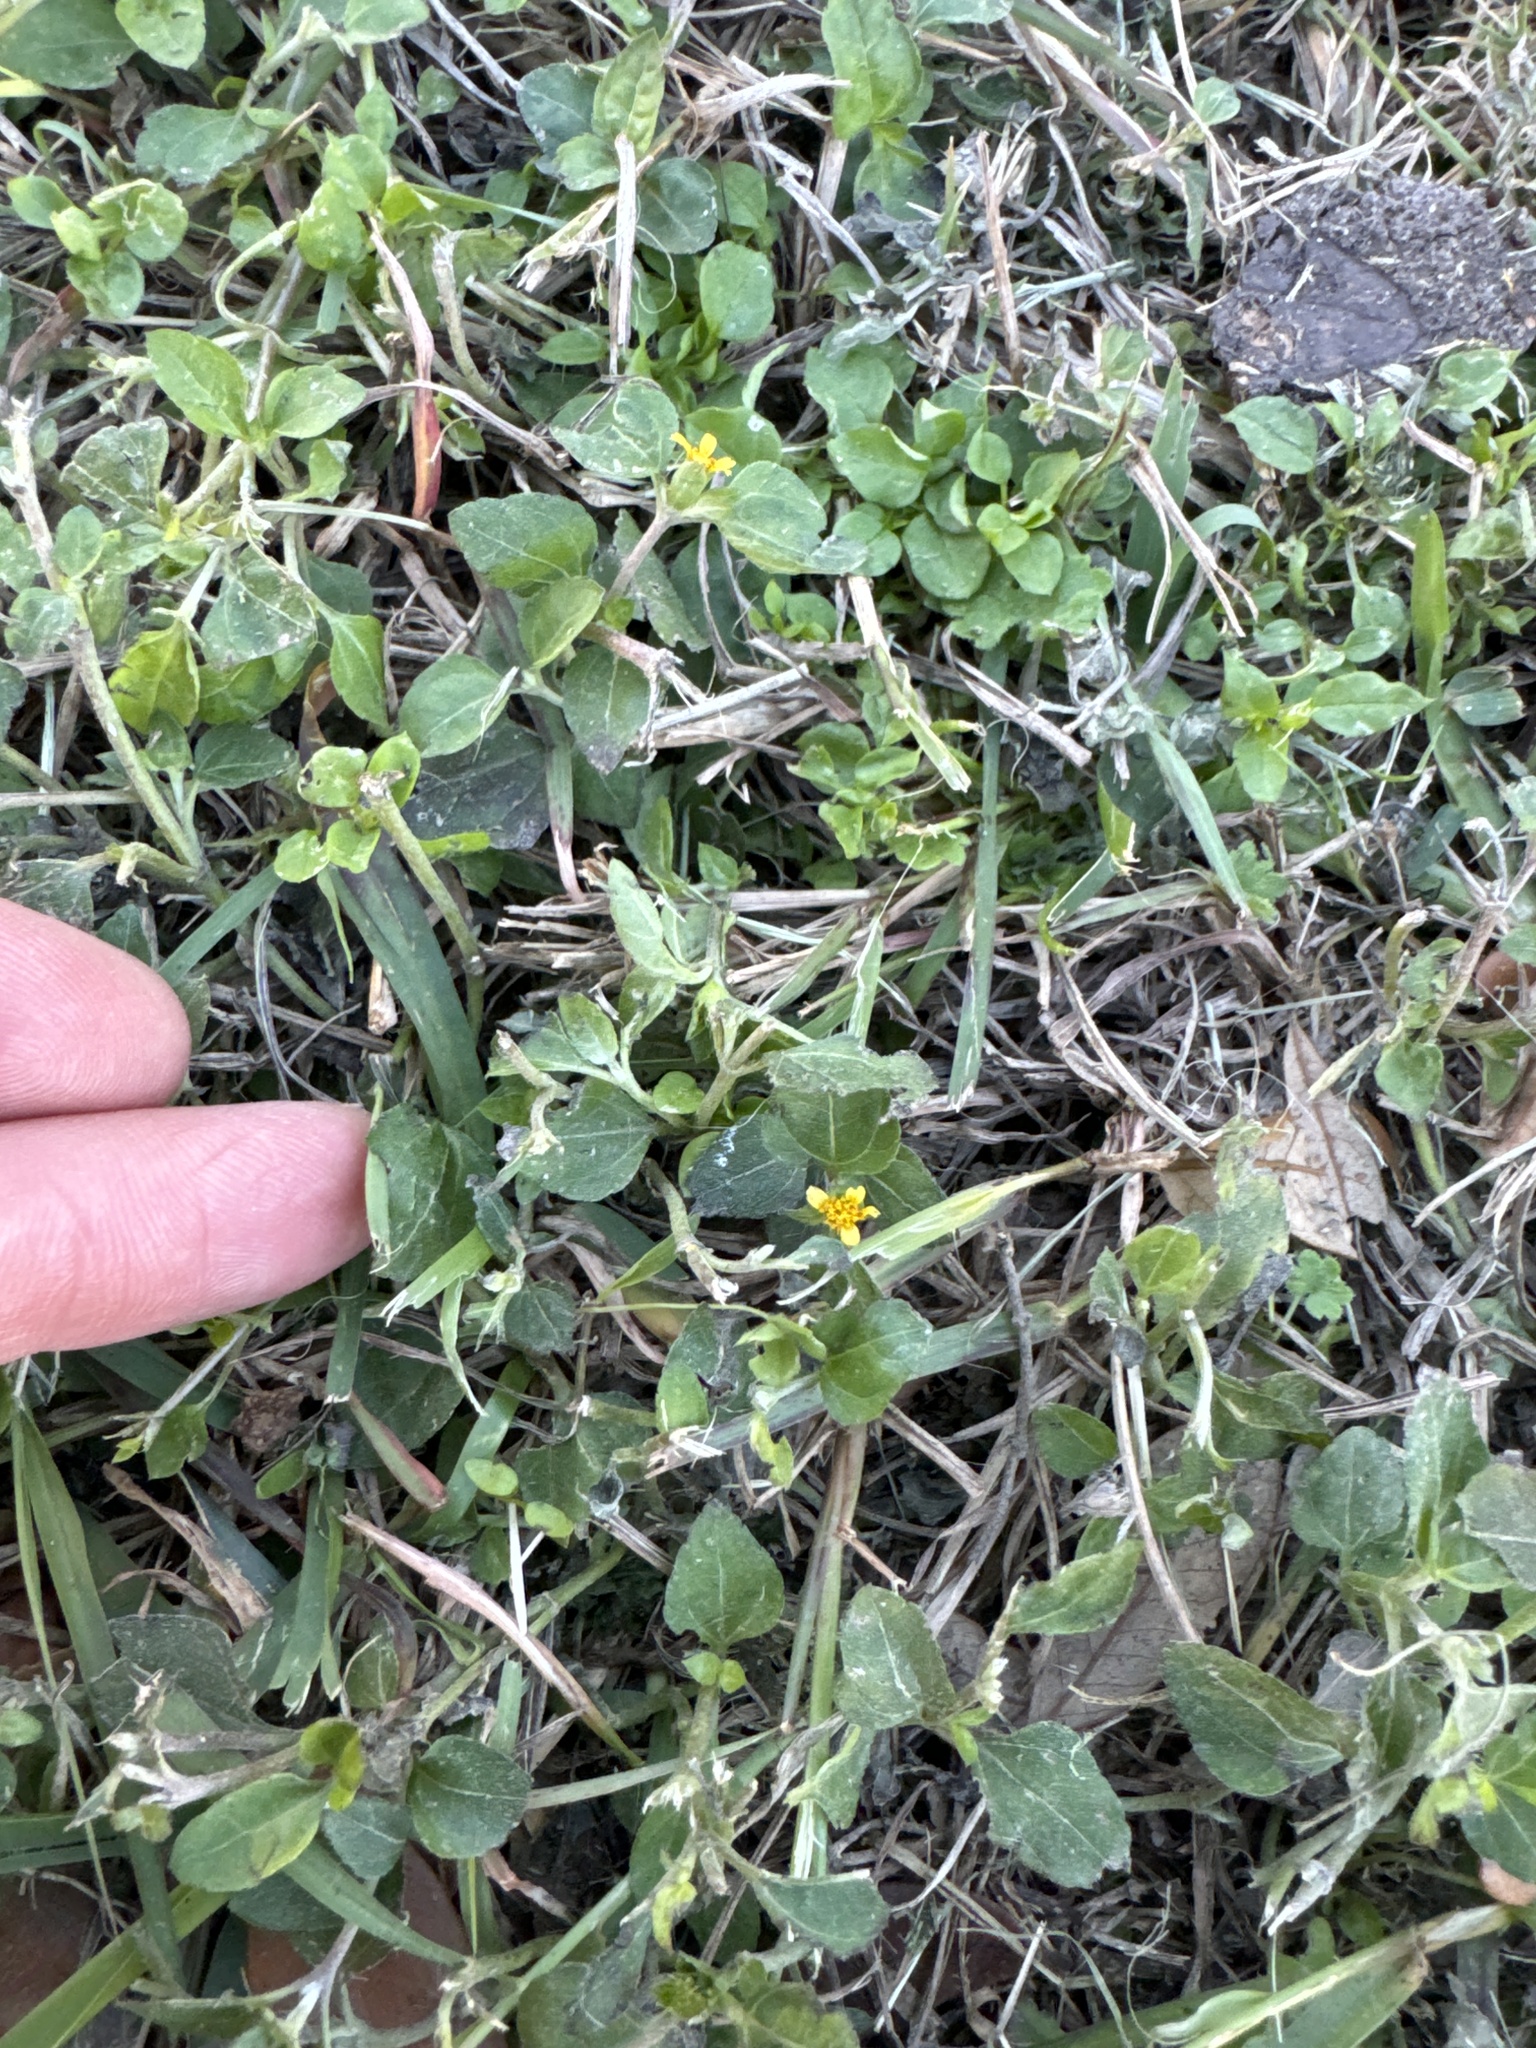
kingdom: Plantae
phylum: Tracheophyta
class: Magnoliopsida
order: Asterales
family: Asteraceae
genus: Calyptocarpus
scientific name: Calyptocarpus vialis
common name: Straggler daisy
